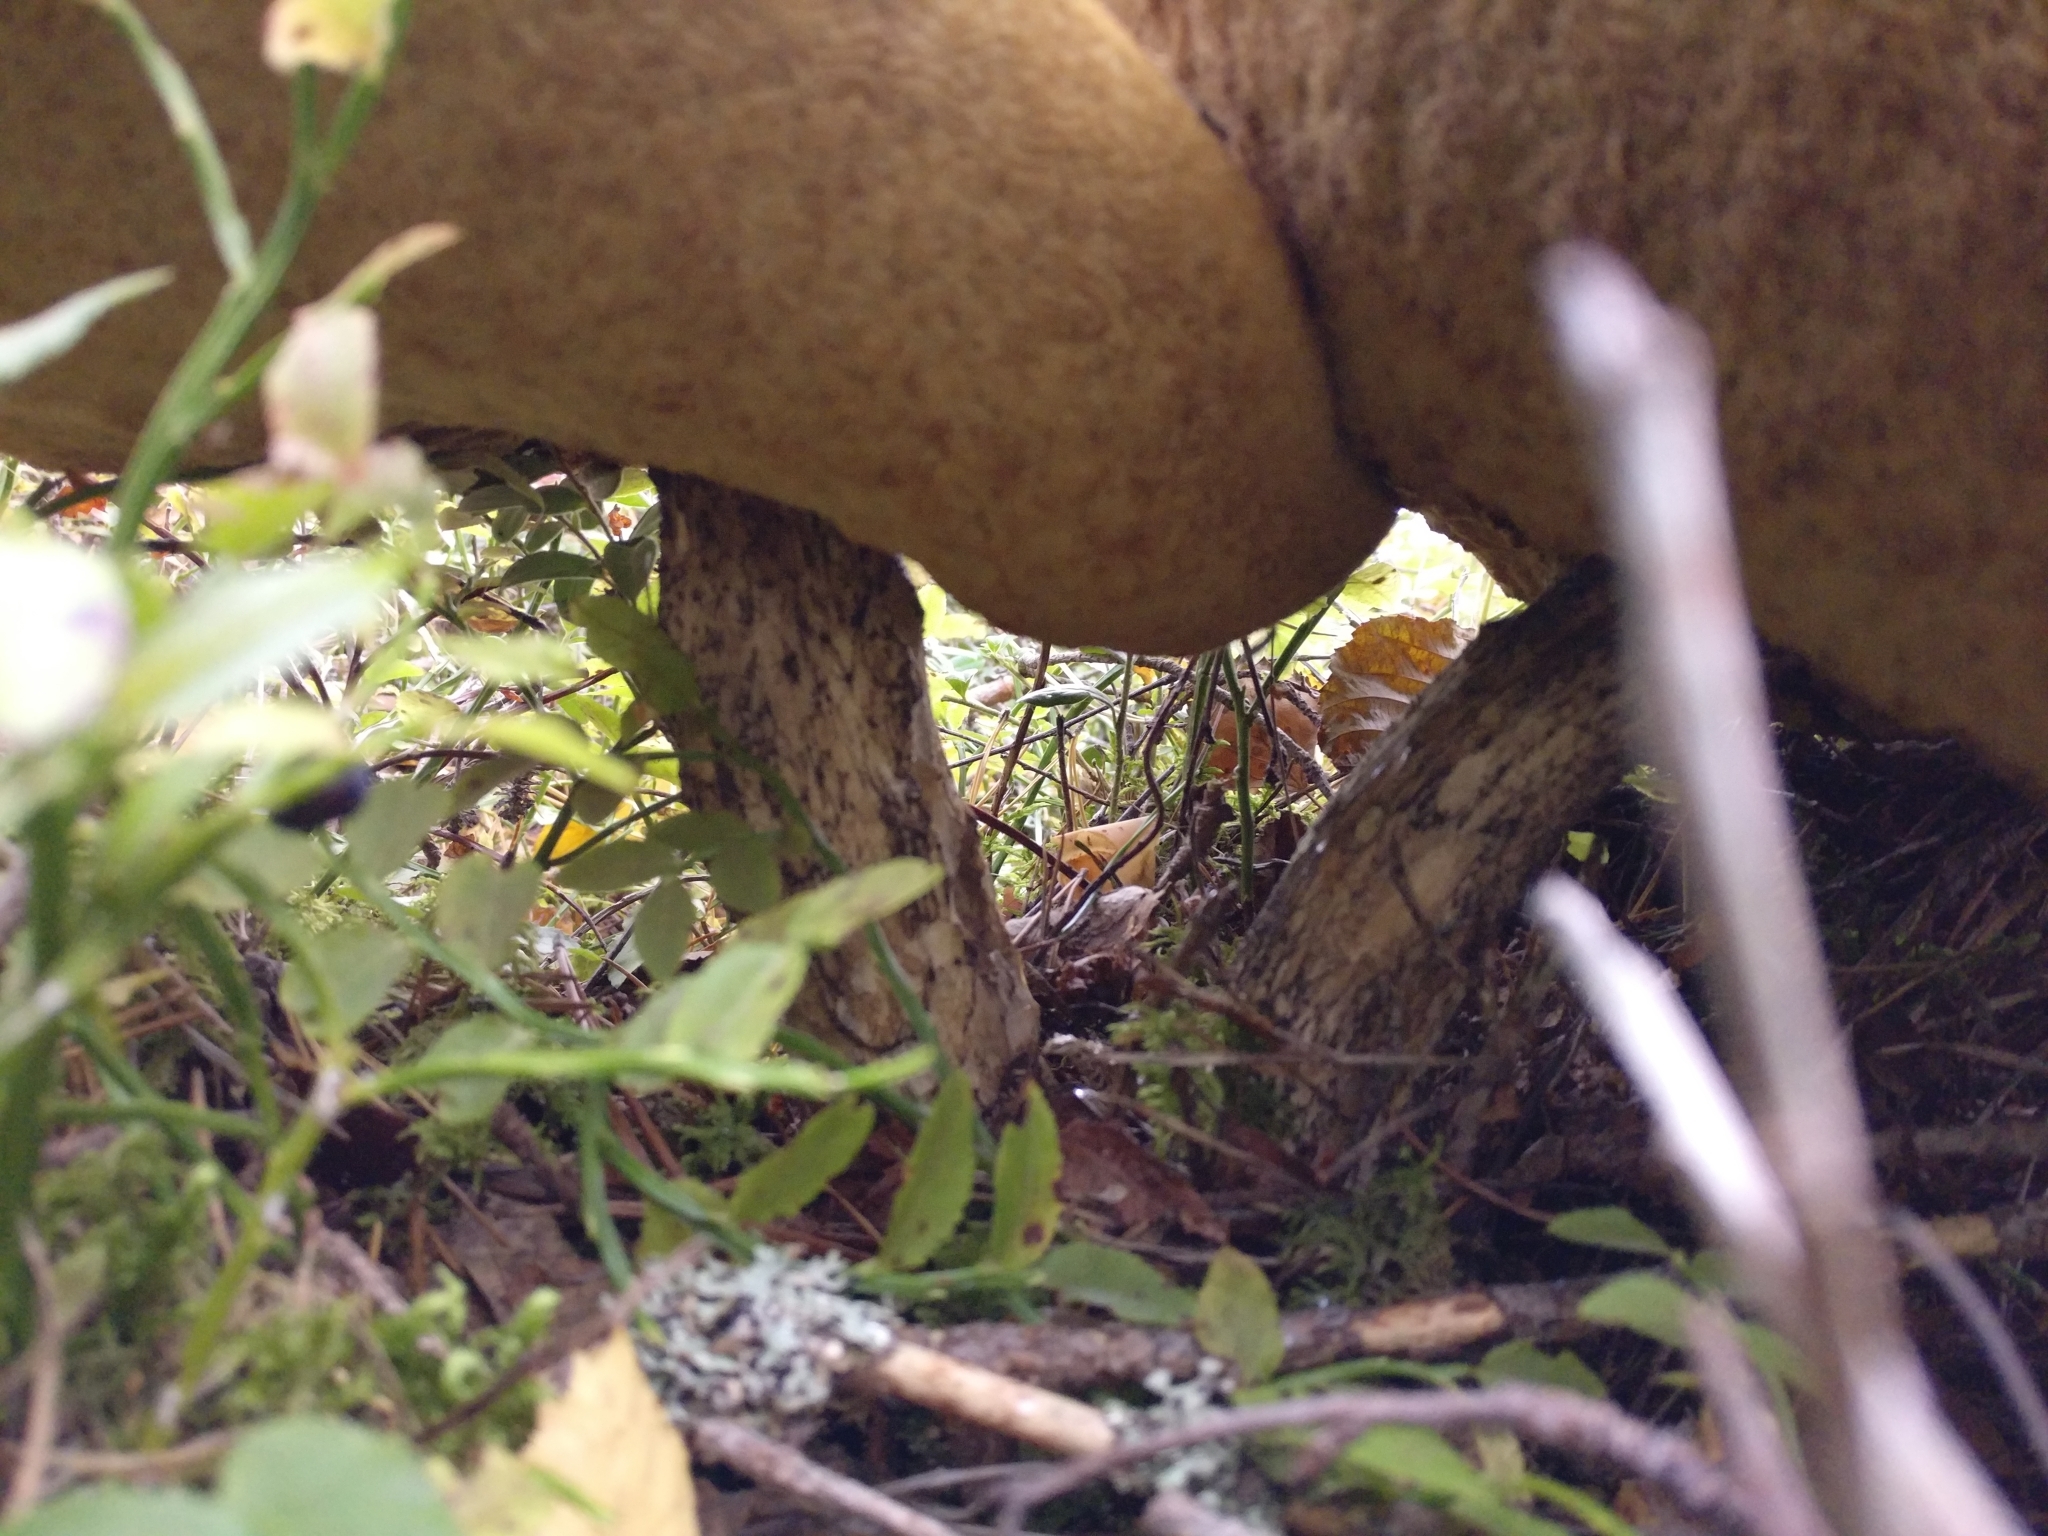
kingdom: Fungi
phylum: Basidiomycota
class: Agaricomycetes
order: Boletales
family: Boletaceae
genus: Leccinum
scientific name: Leccinum versipelle
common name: Orange birch bolete
